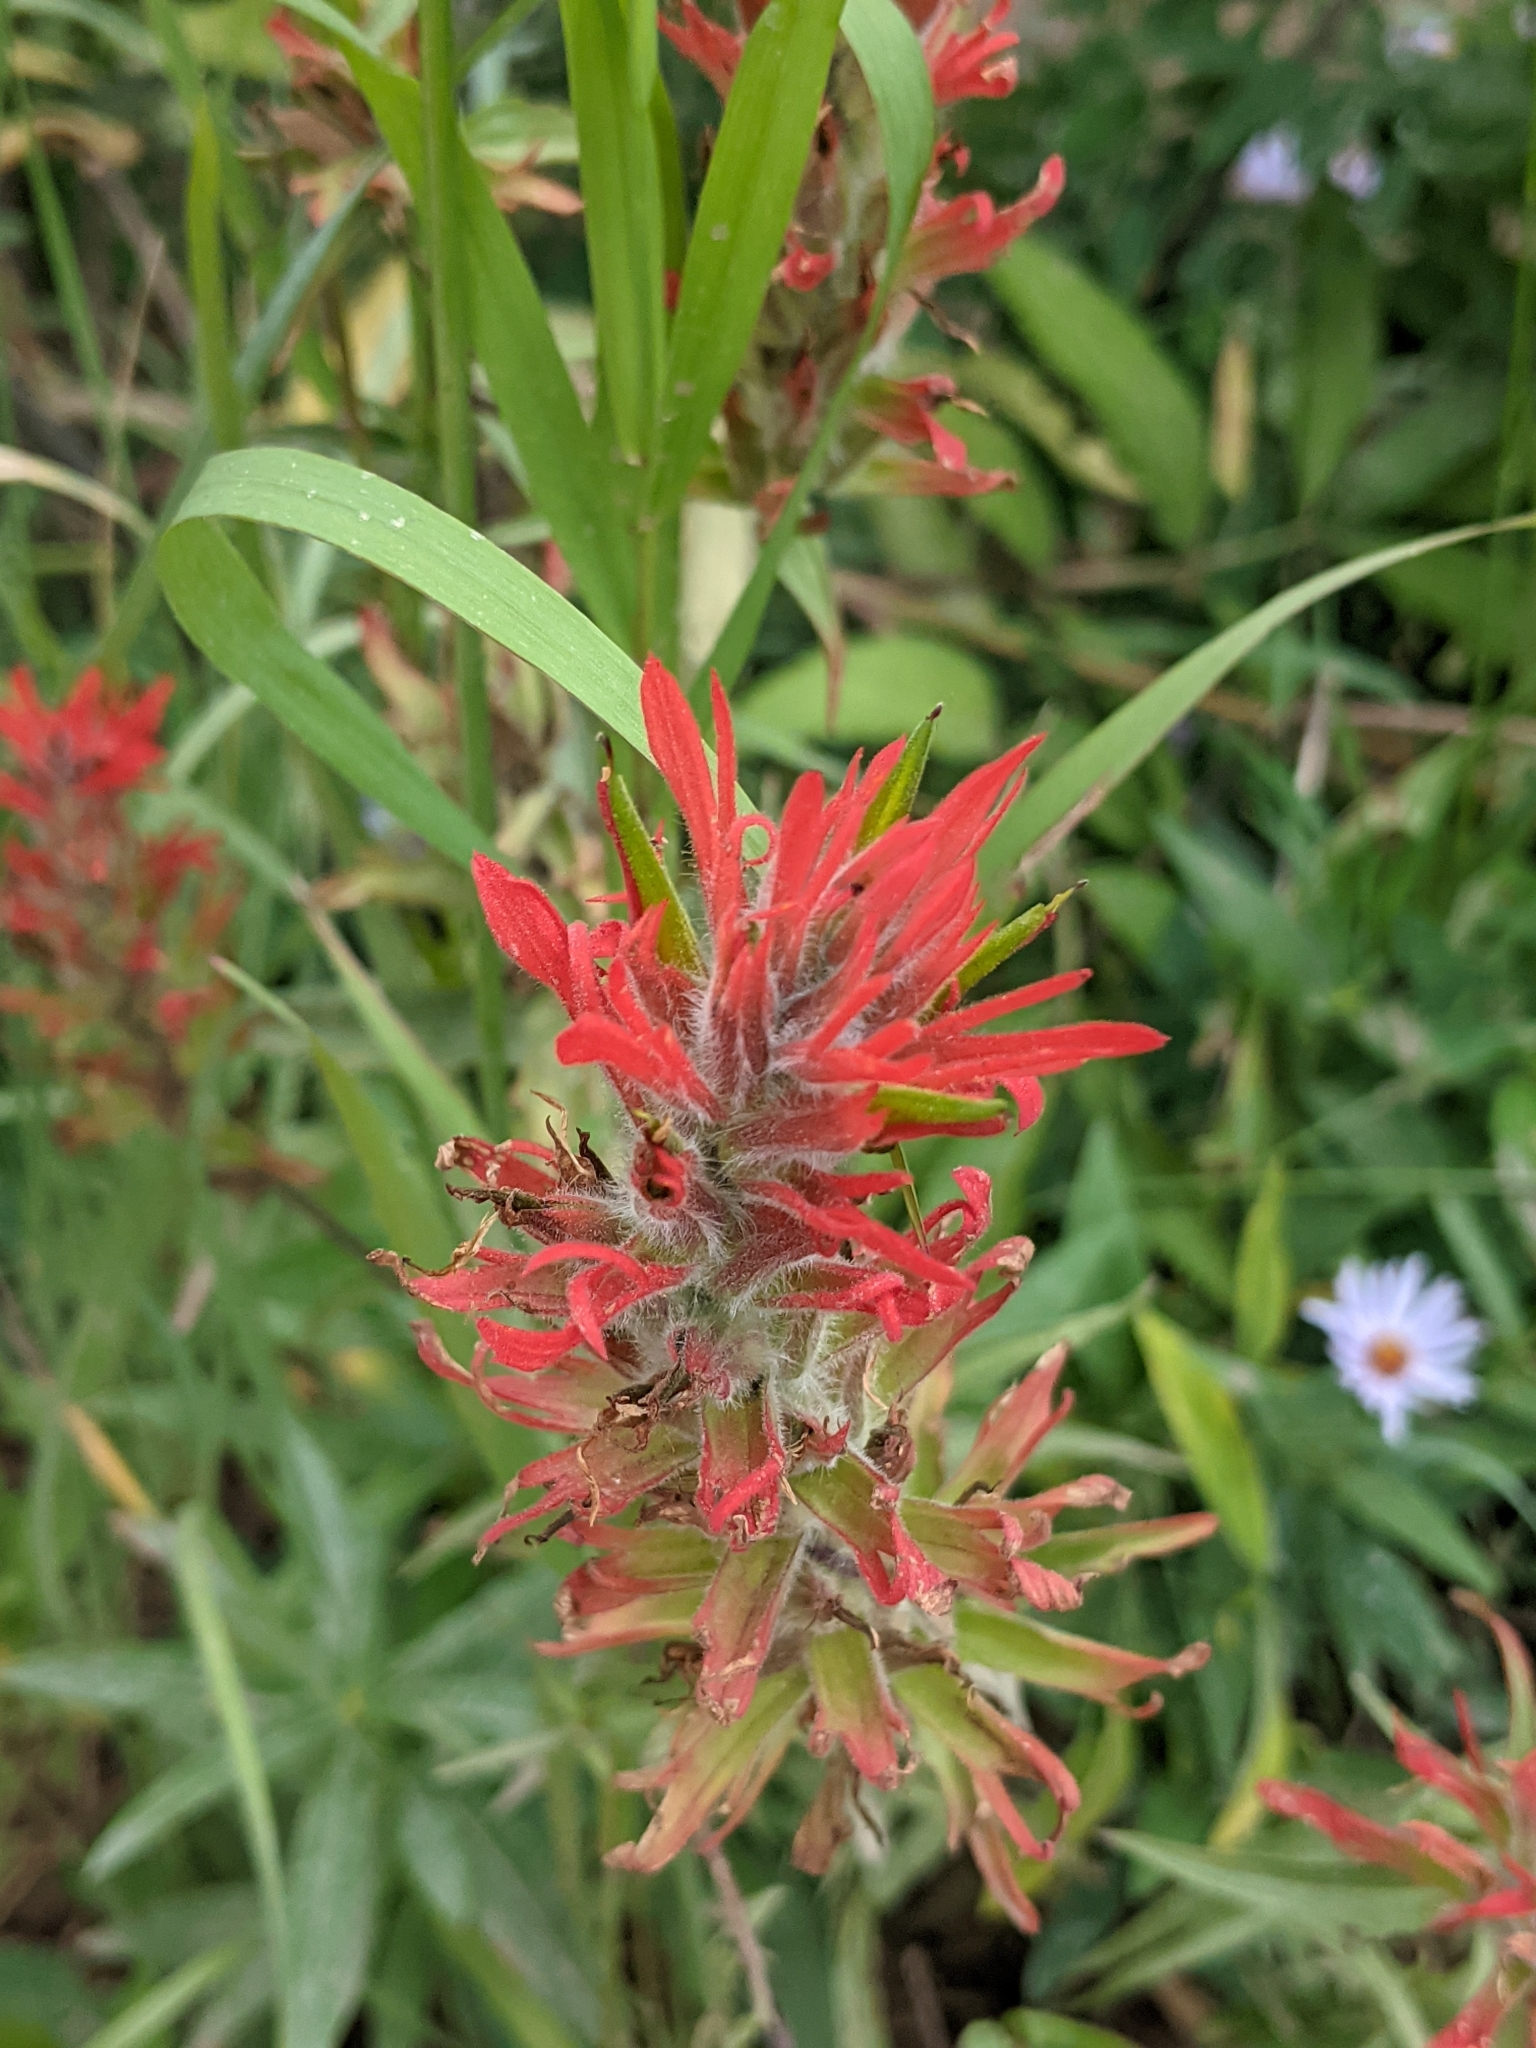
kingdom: Plantae
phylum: Tracheophyta
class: Magnoliopsida
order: Lamiales
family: Orobanchaceae
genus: Castilleja
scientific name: Castilleja miniata
